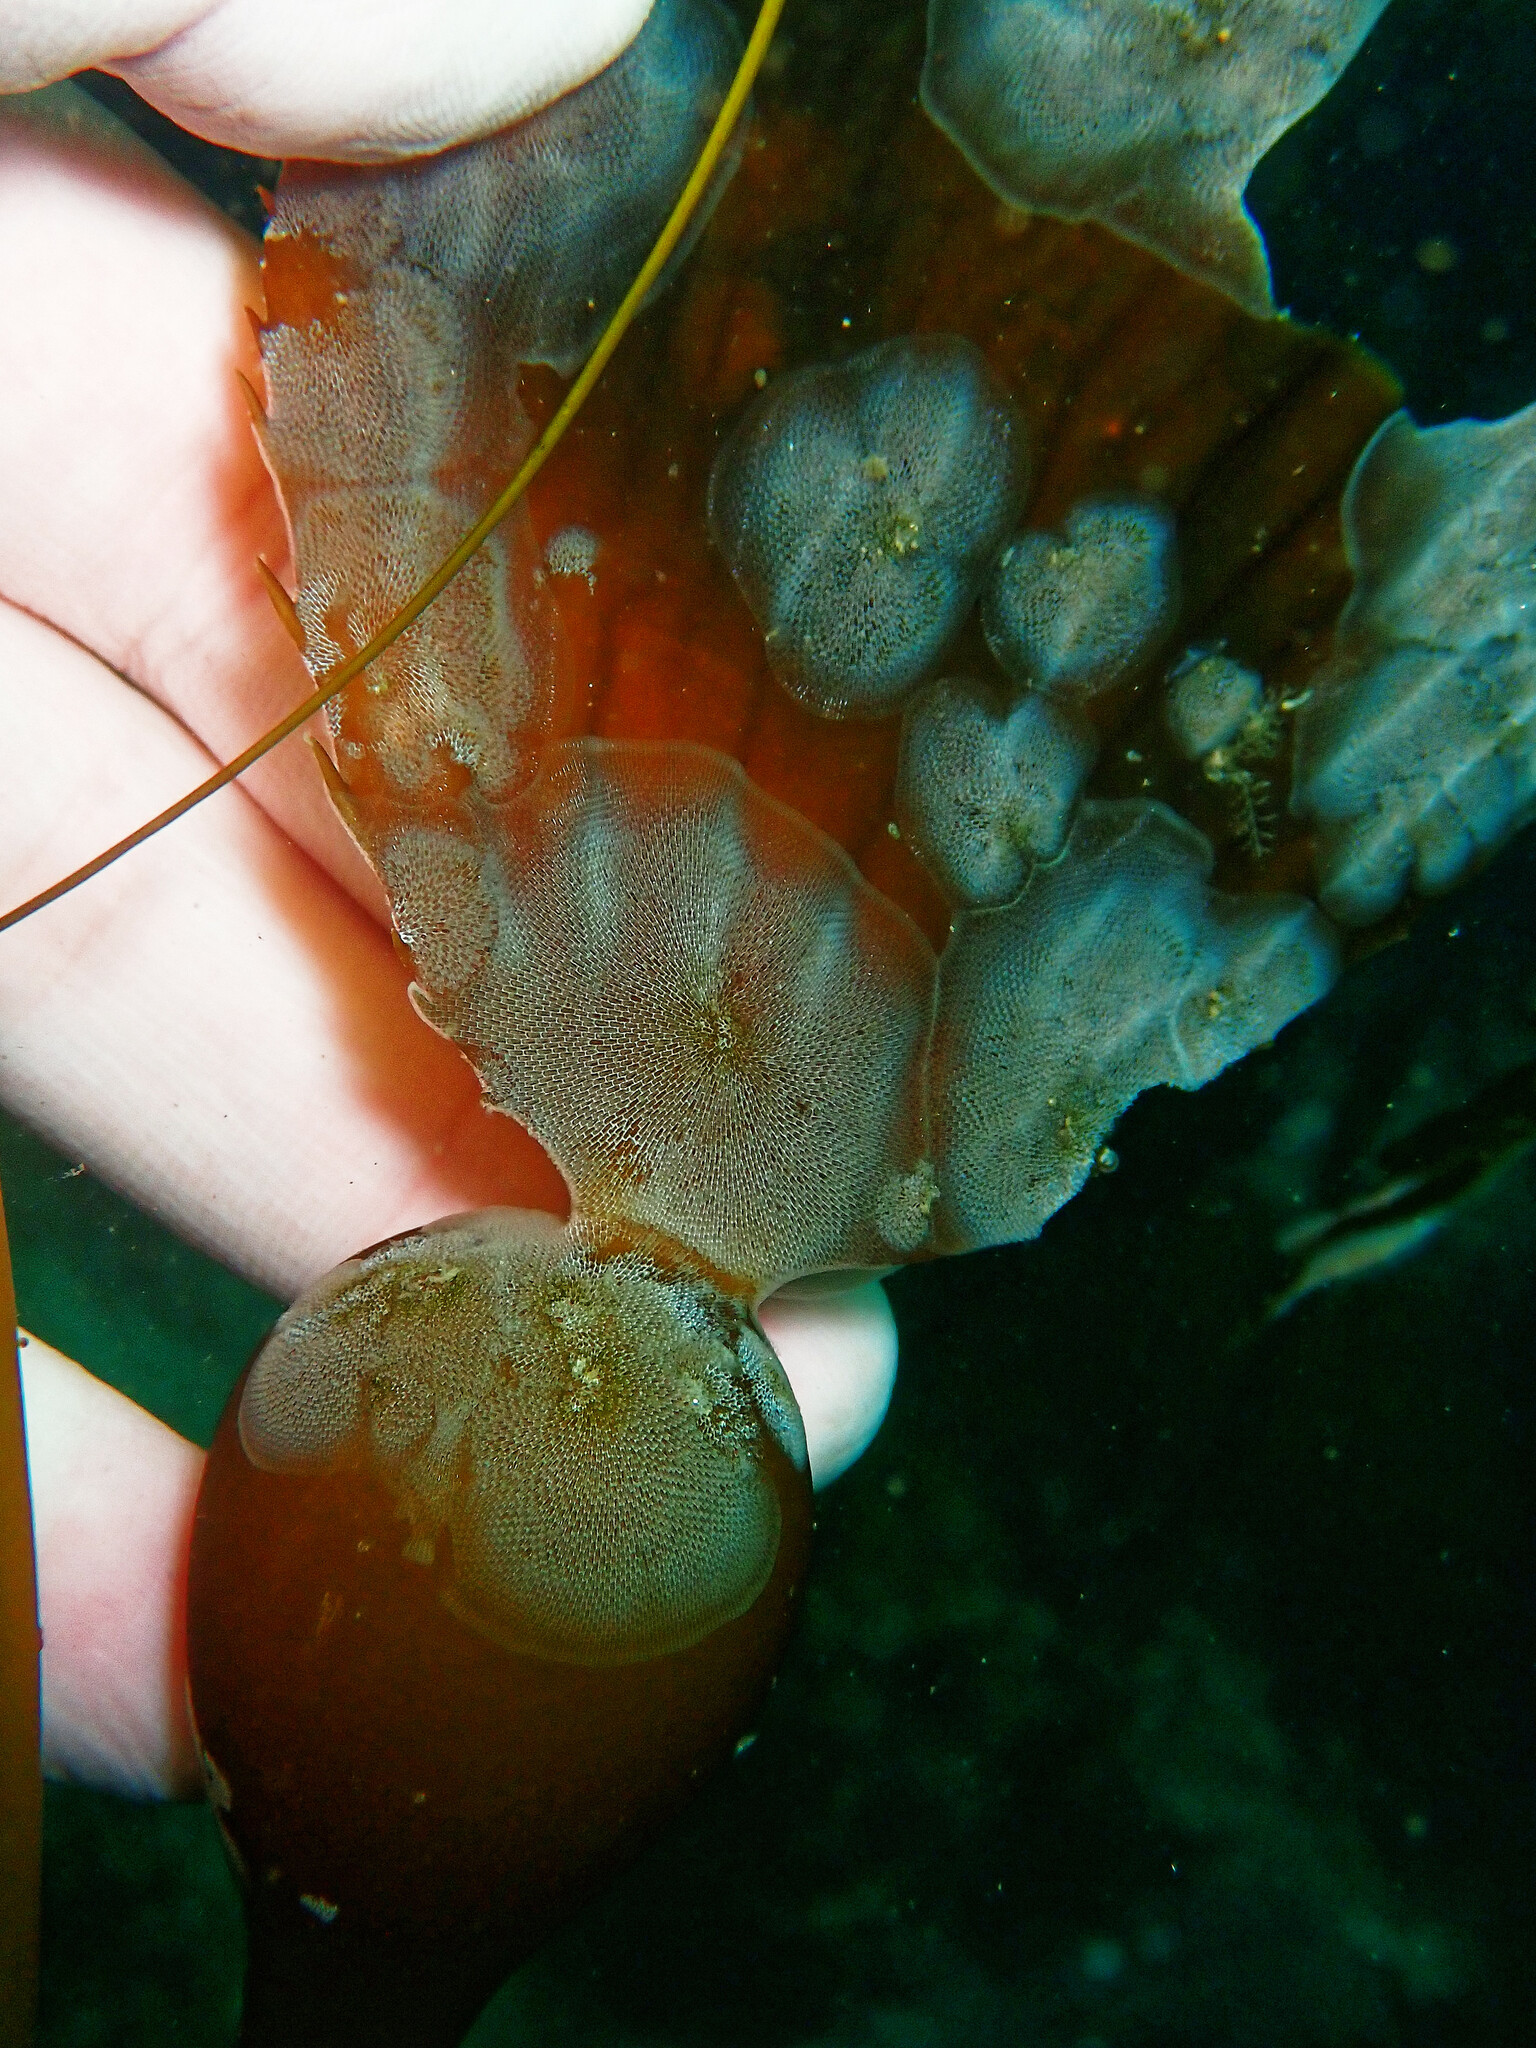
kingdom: Animalia
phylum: Bryozoa
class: Gymnolaemata
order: Cheilostomatida
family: Membraniporidae
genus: Membranipora
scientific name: Membranipora membranacea
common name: Sea mat
